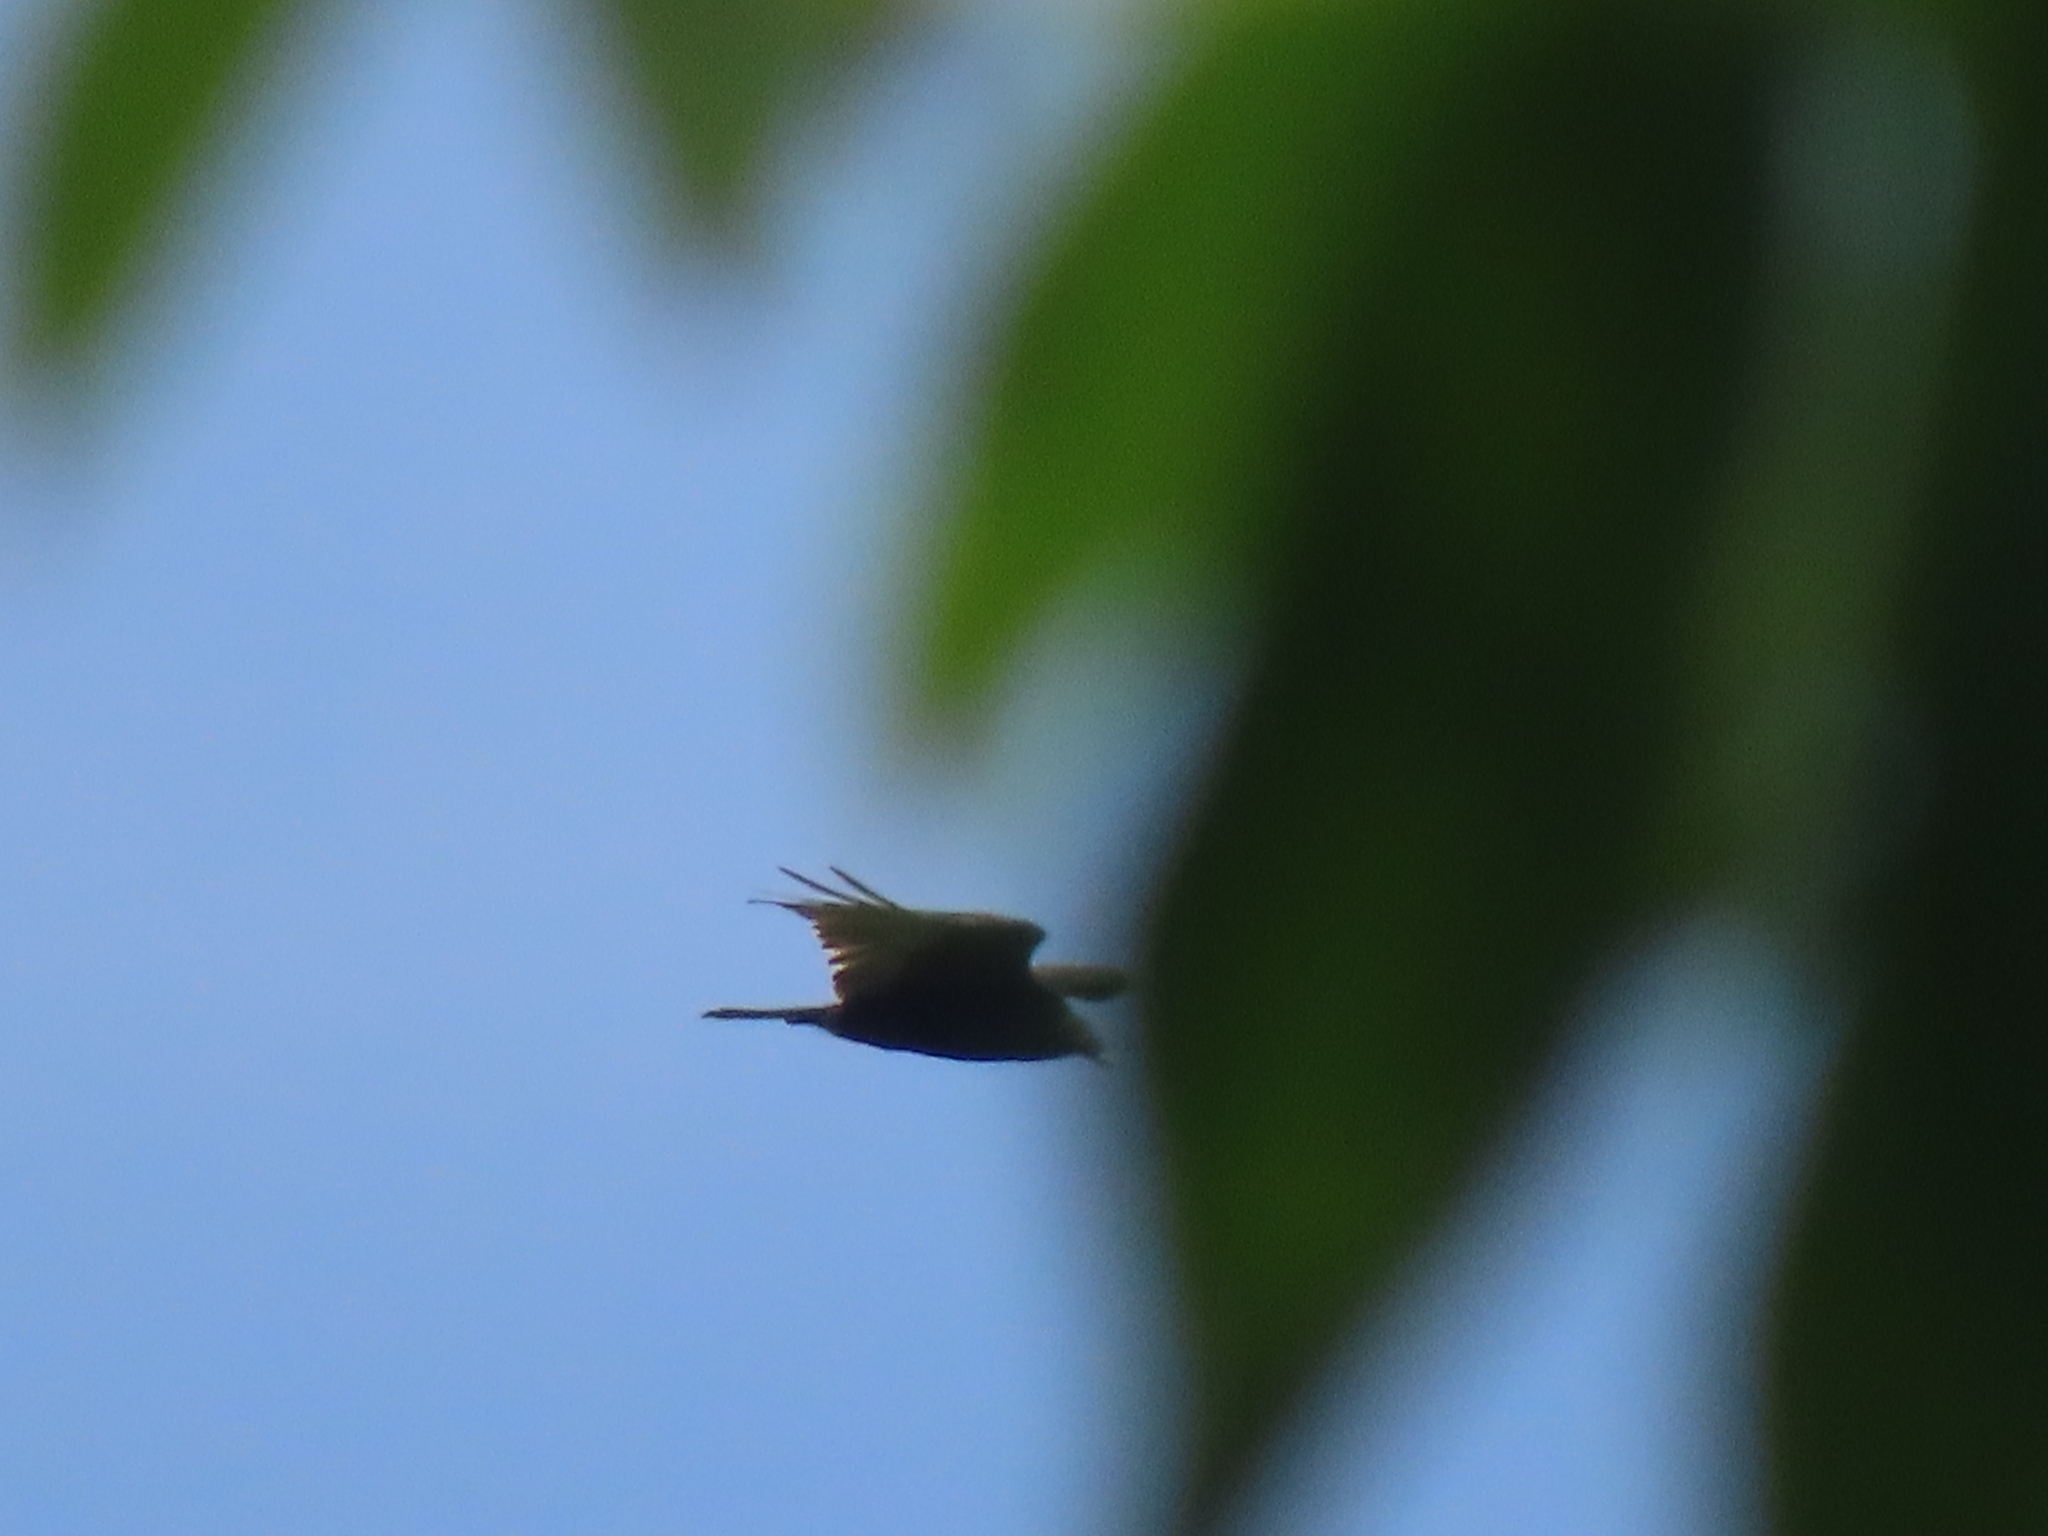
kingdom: Animalia
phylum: Chordata
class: Aves
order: Accipitriformes
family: Cathartidae
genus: Cathartes
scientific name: Cathartes aura
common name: Turkey vulture
